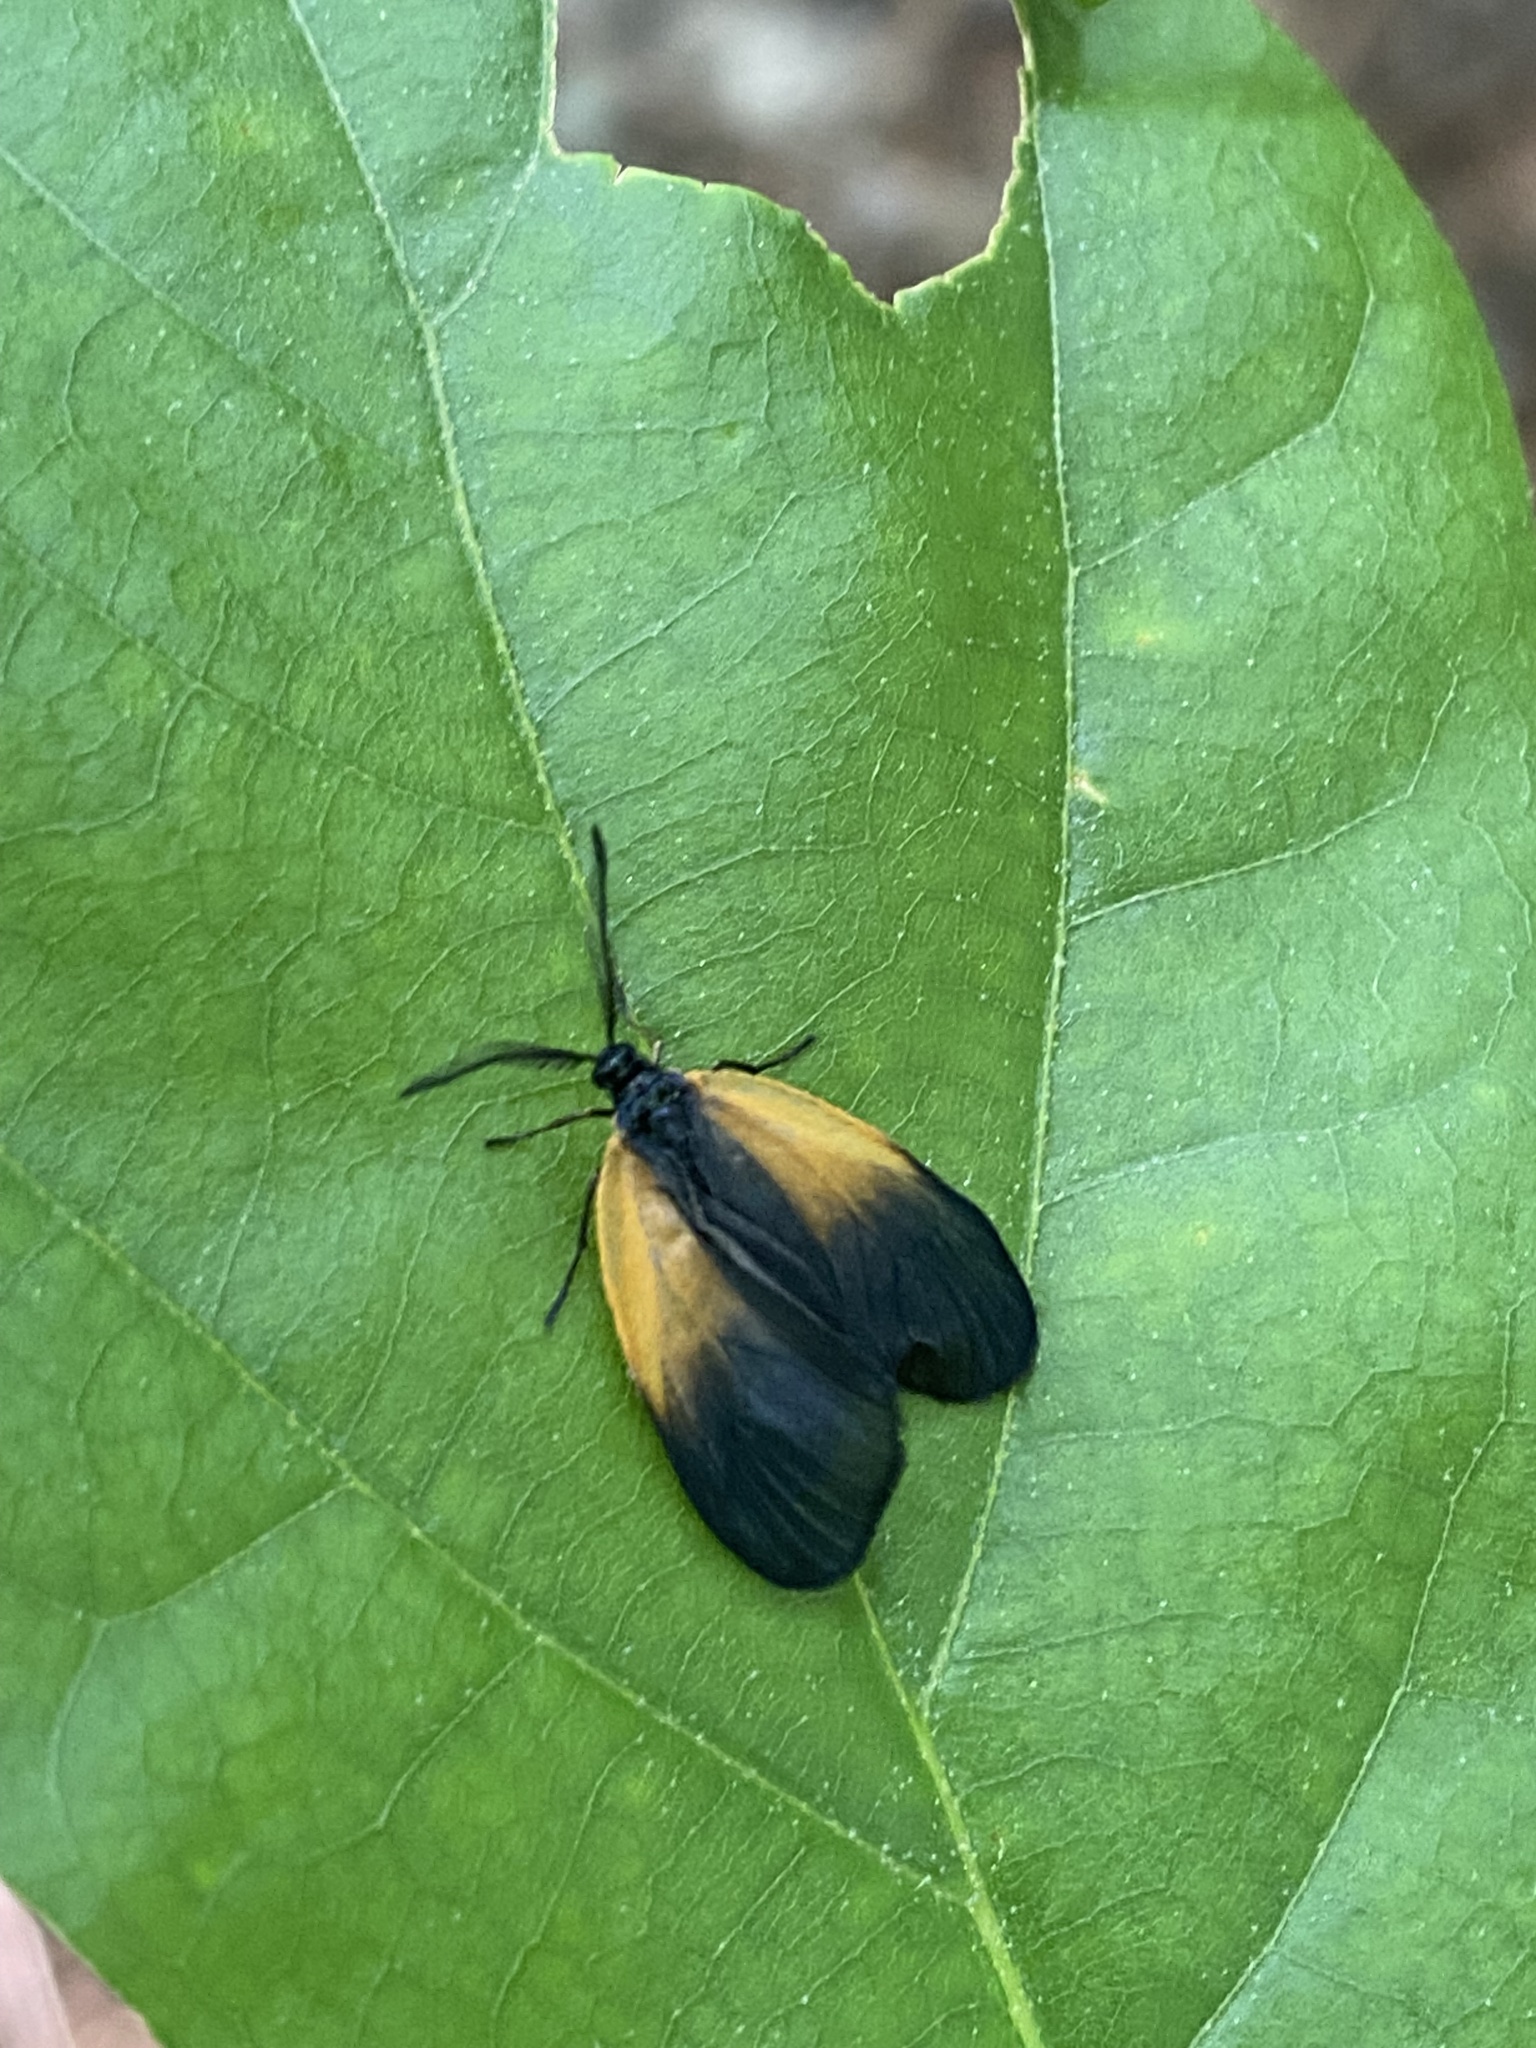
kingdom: Animalia
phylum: Arthropoda
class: Insecta
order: Lepidoptera
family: Zygaenidae
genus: Malthaca
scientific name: Malthaca dimidiata
